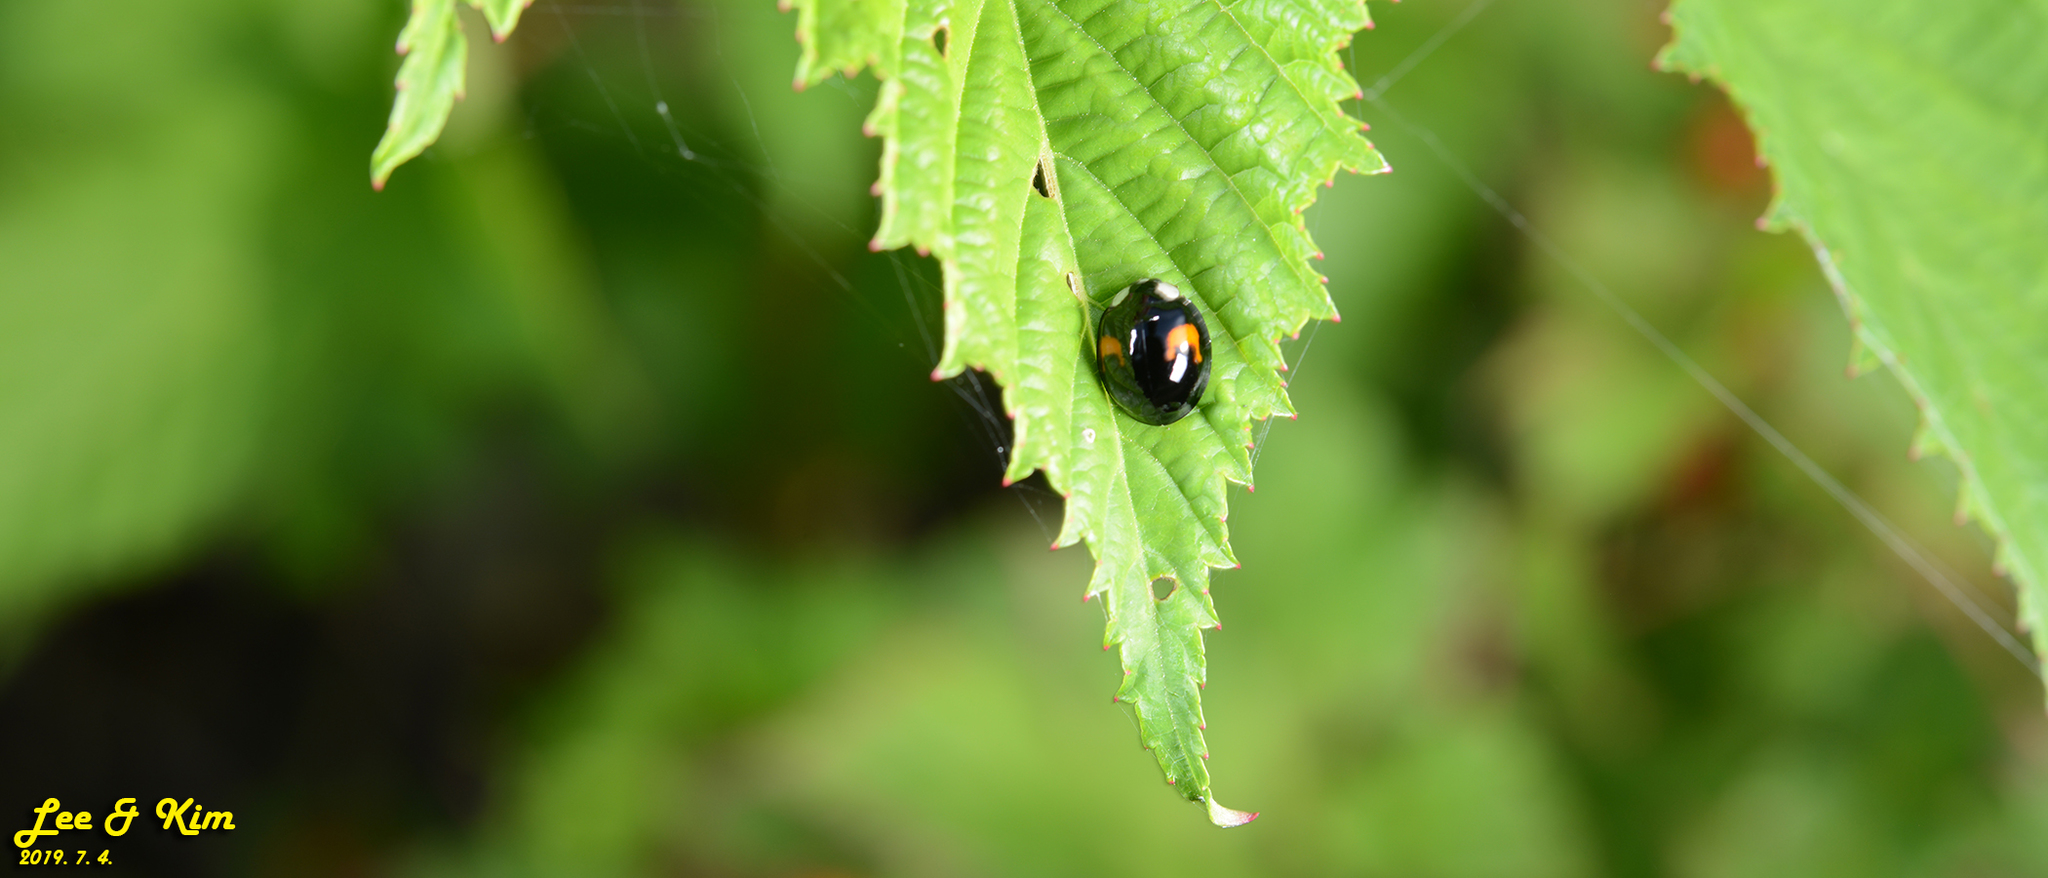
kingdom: Animalia
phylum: Arthropoda
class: Insecta
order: Coleoptera
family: Coccinellidae
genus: Harmonia
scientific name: Harmonia axyridis
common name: Harlequin ladybird
